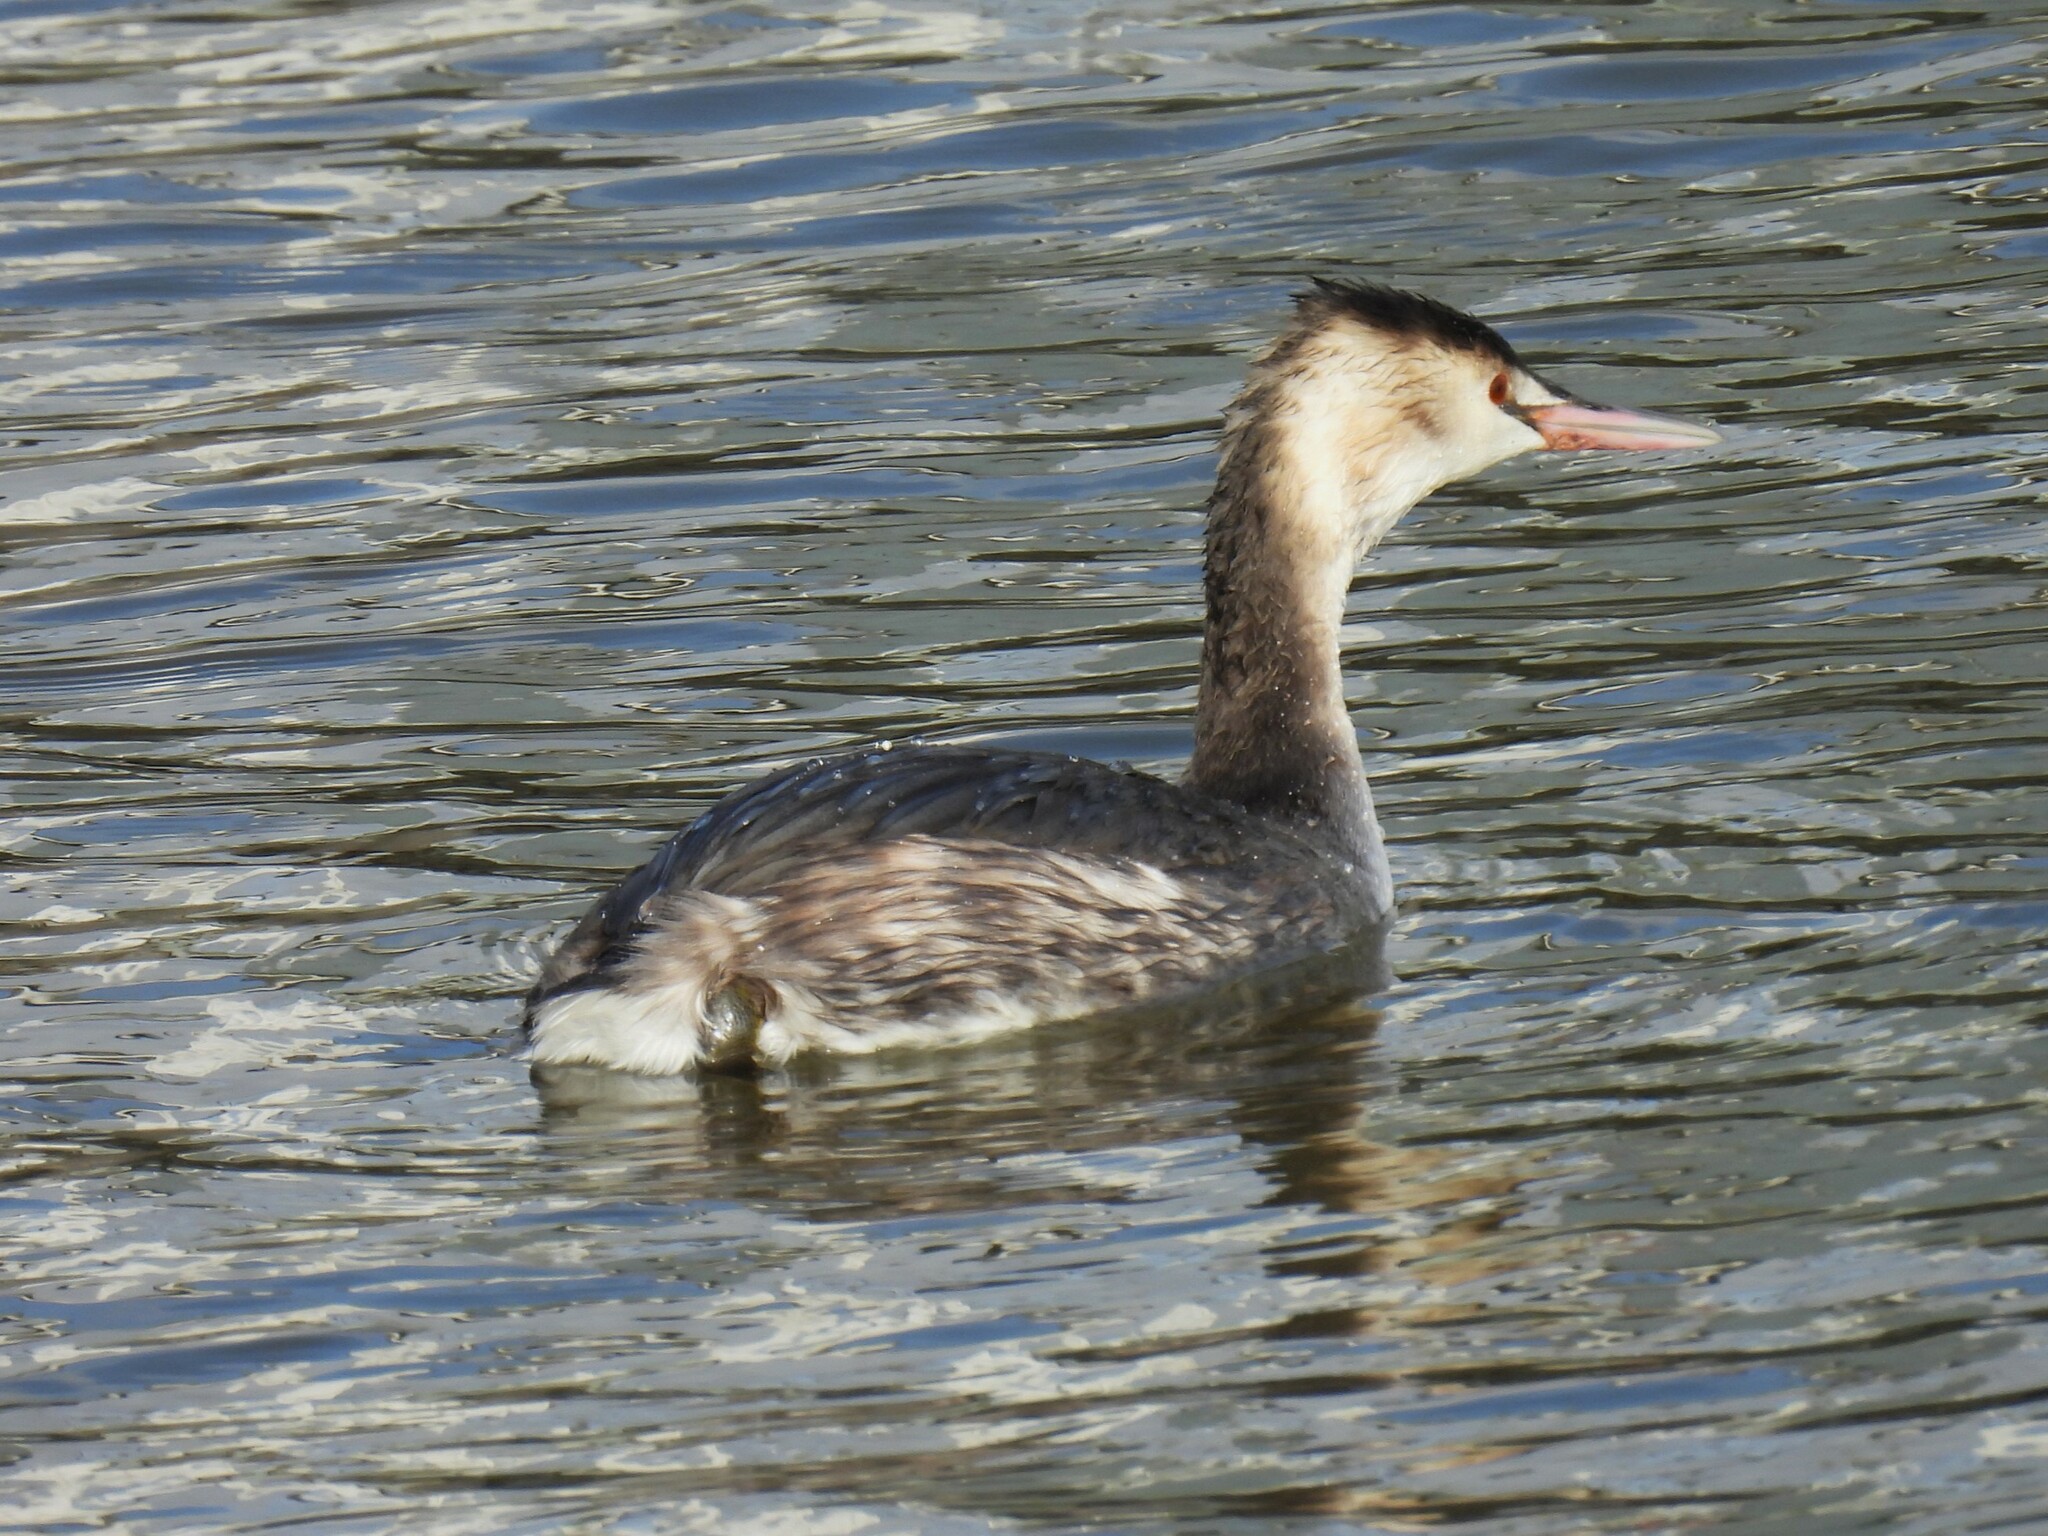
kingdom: Animalia
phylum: Chordata
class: Aves
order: Podicipediformes
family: Podicipedidae
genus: Podiceps
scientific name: Podiceps cristatus
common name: Great crested grebe
